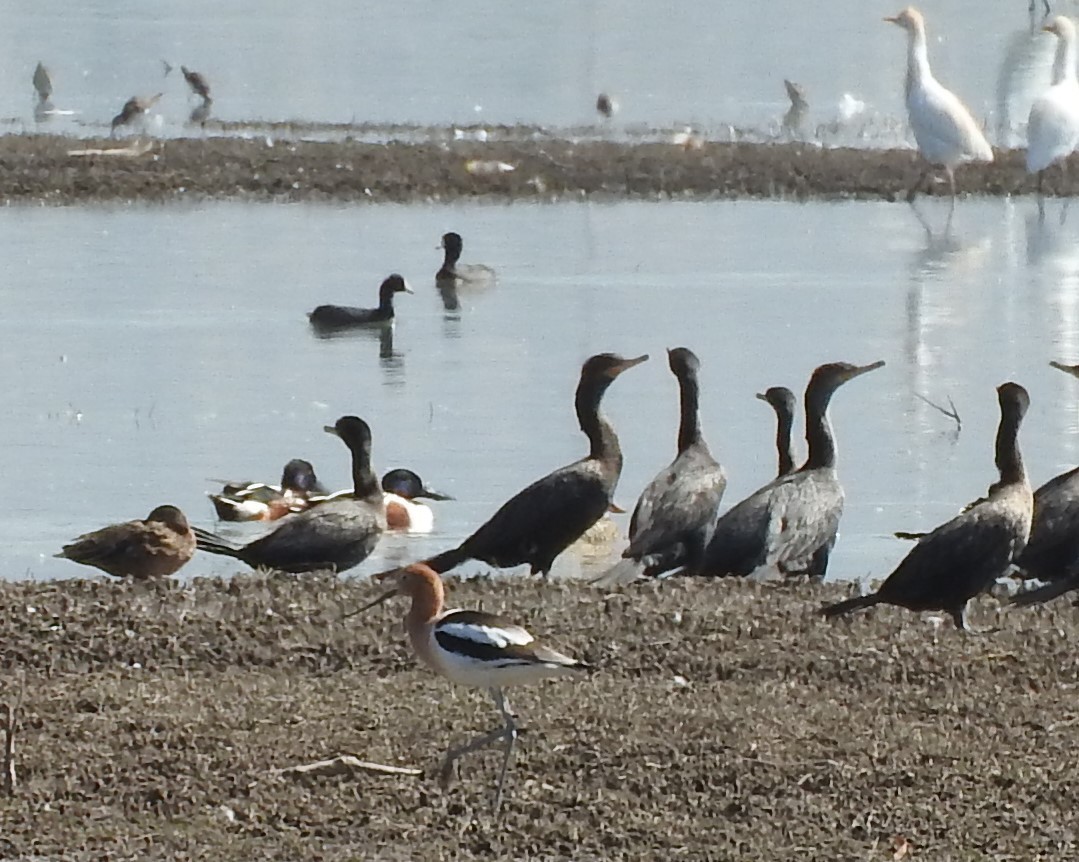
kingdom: Animalia
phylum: Chordata
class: Aves
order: Charadriiformes
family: Recurvirostridae
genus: Recurvirostra
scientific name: Recurvirostra americana
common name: American avocet
